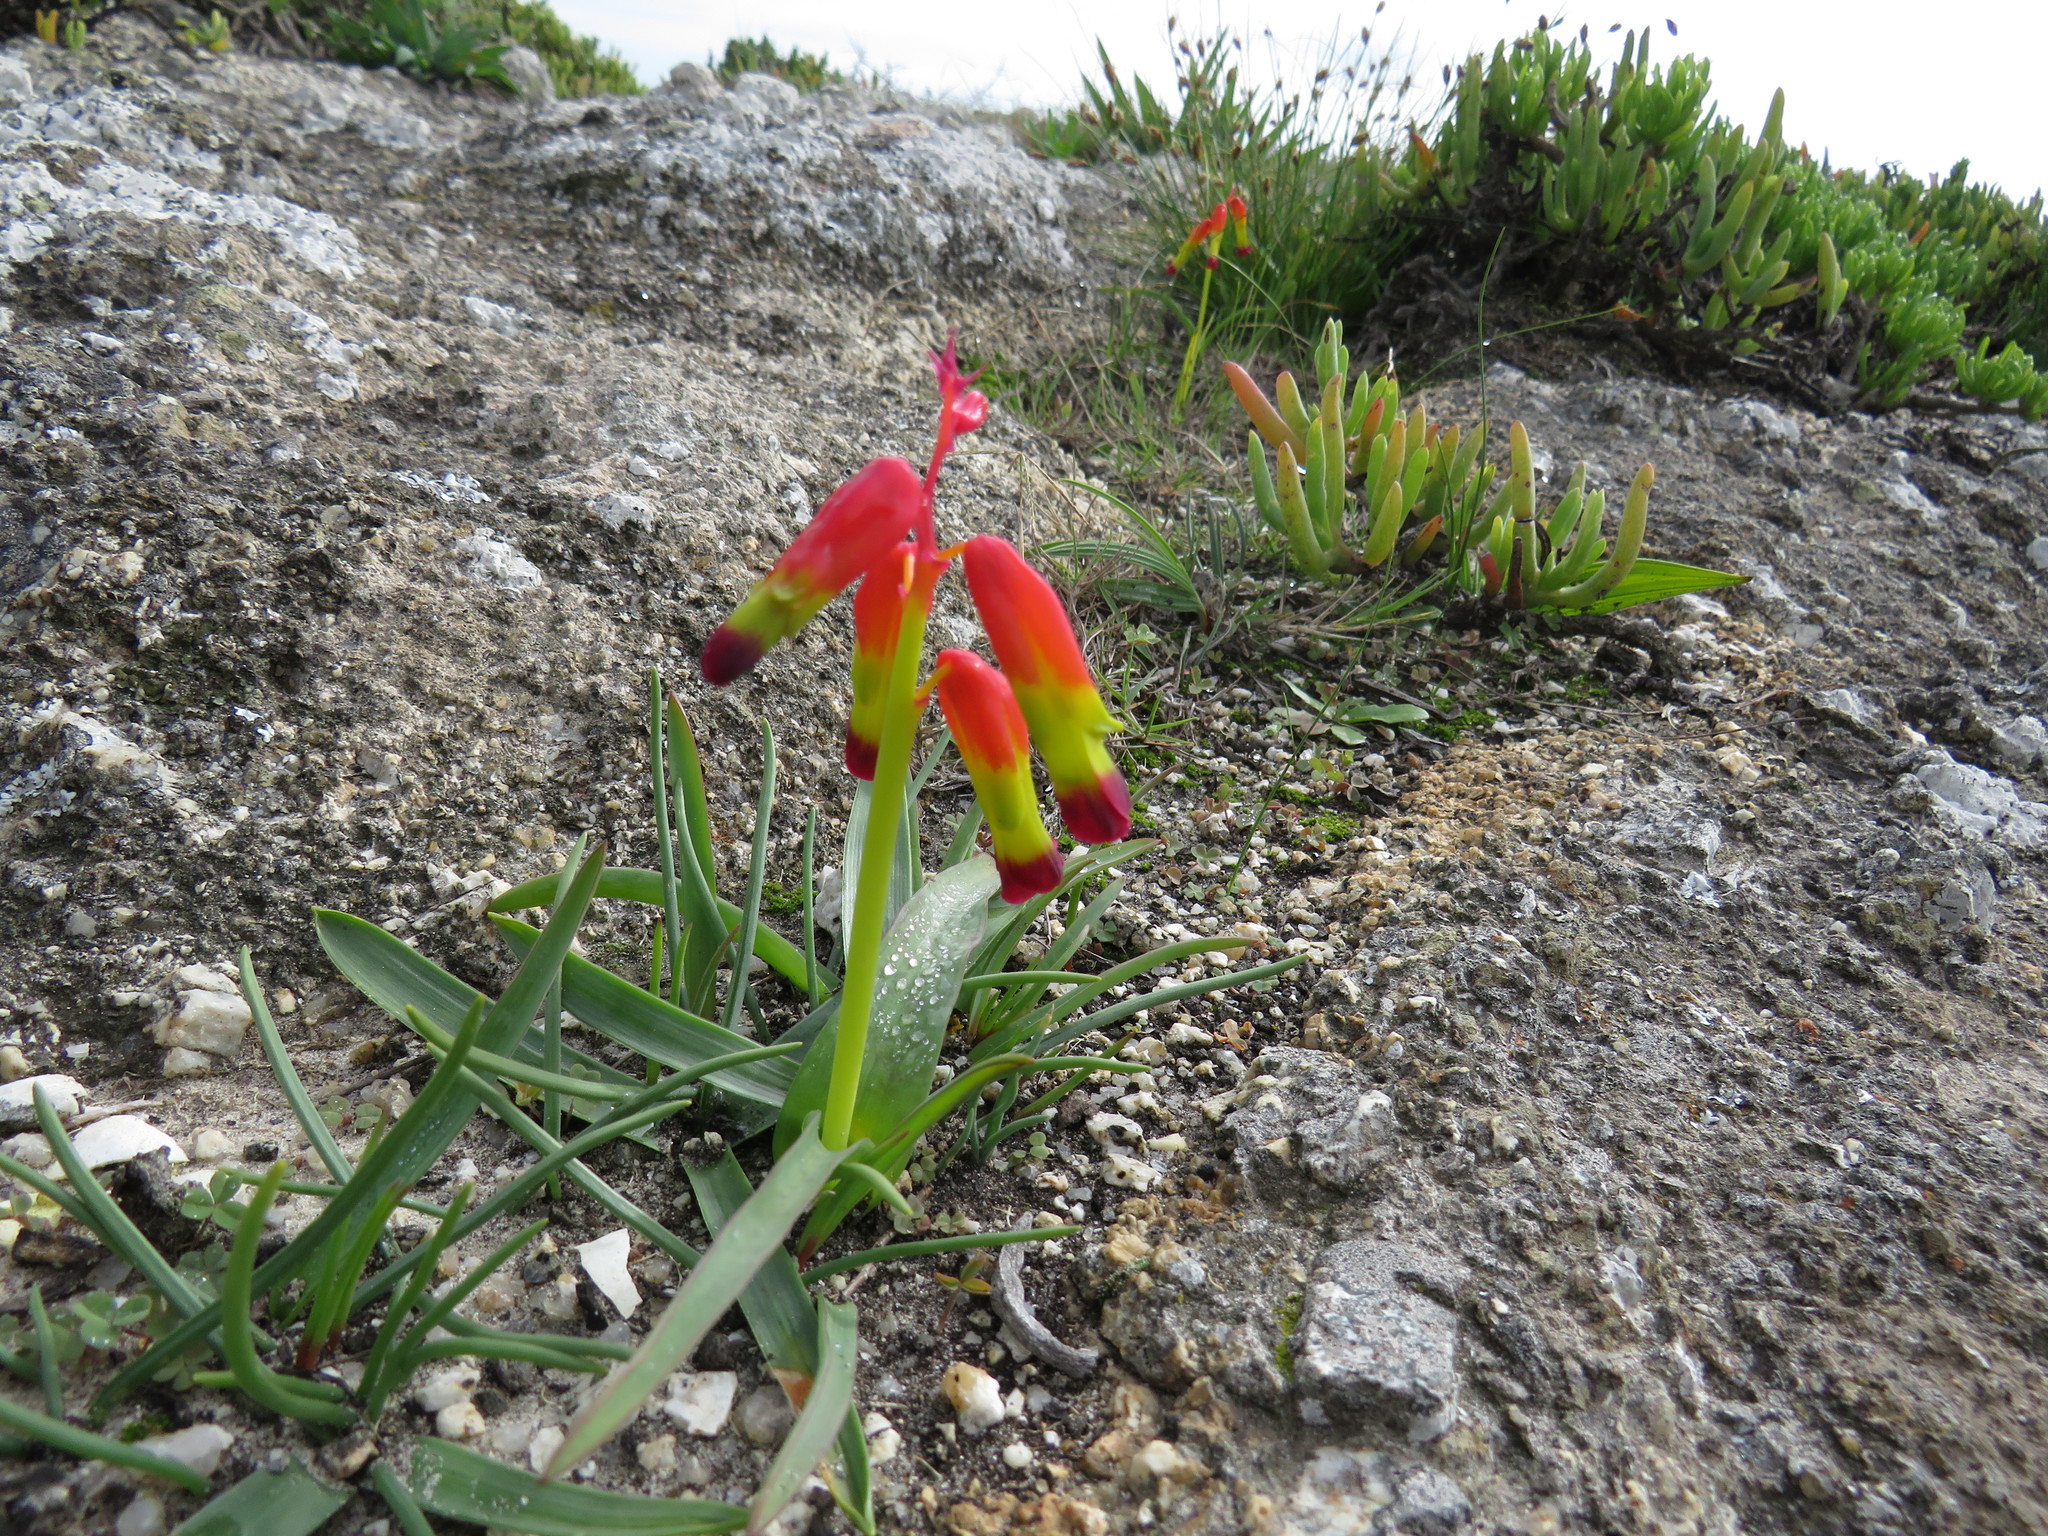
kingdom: Plantae
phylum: Tracheophyta
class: Liliopsida
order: Asparagales
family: Asparagaceae
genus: Lachenalia
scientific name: Lachenalia quadricolor
